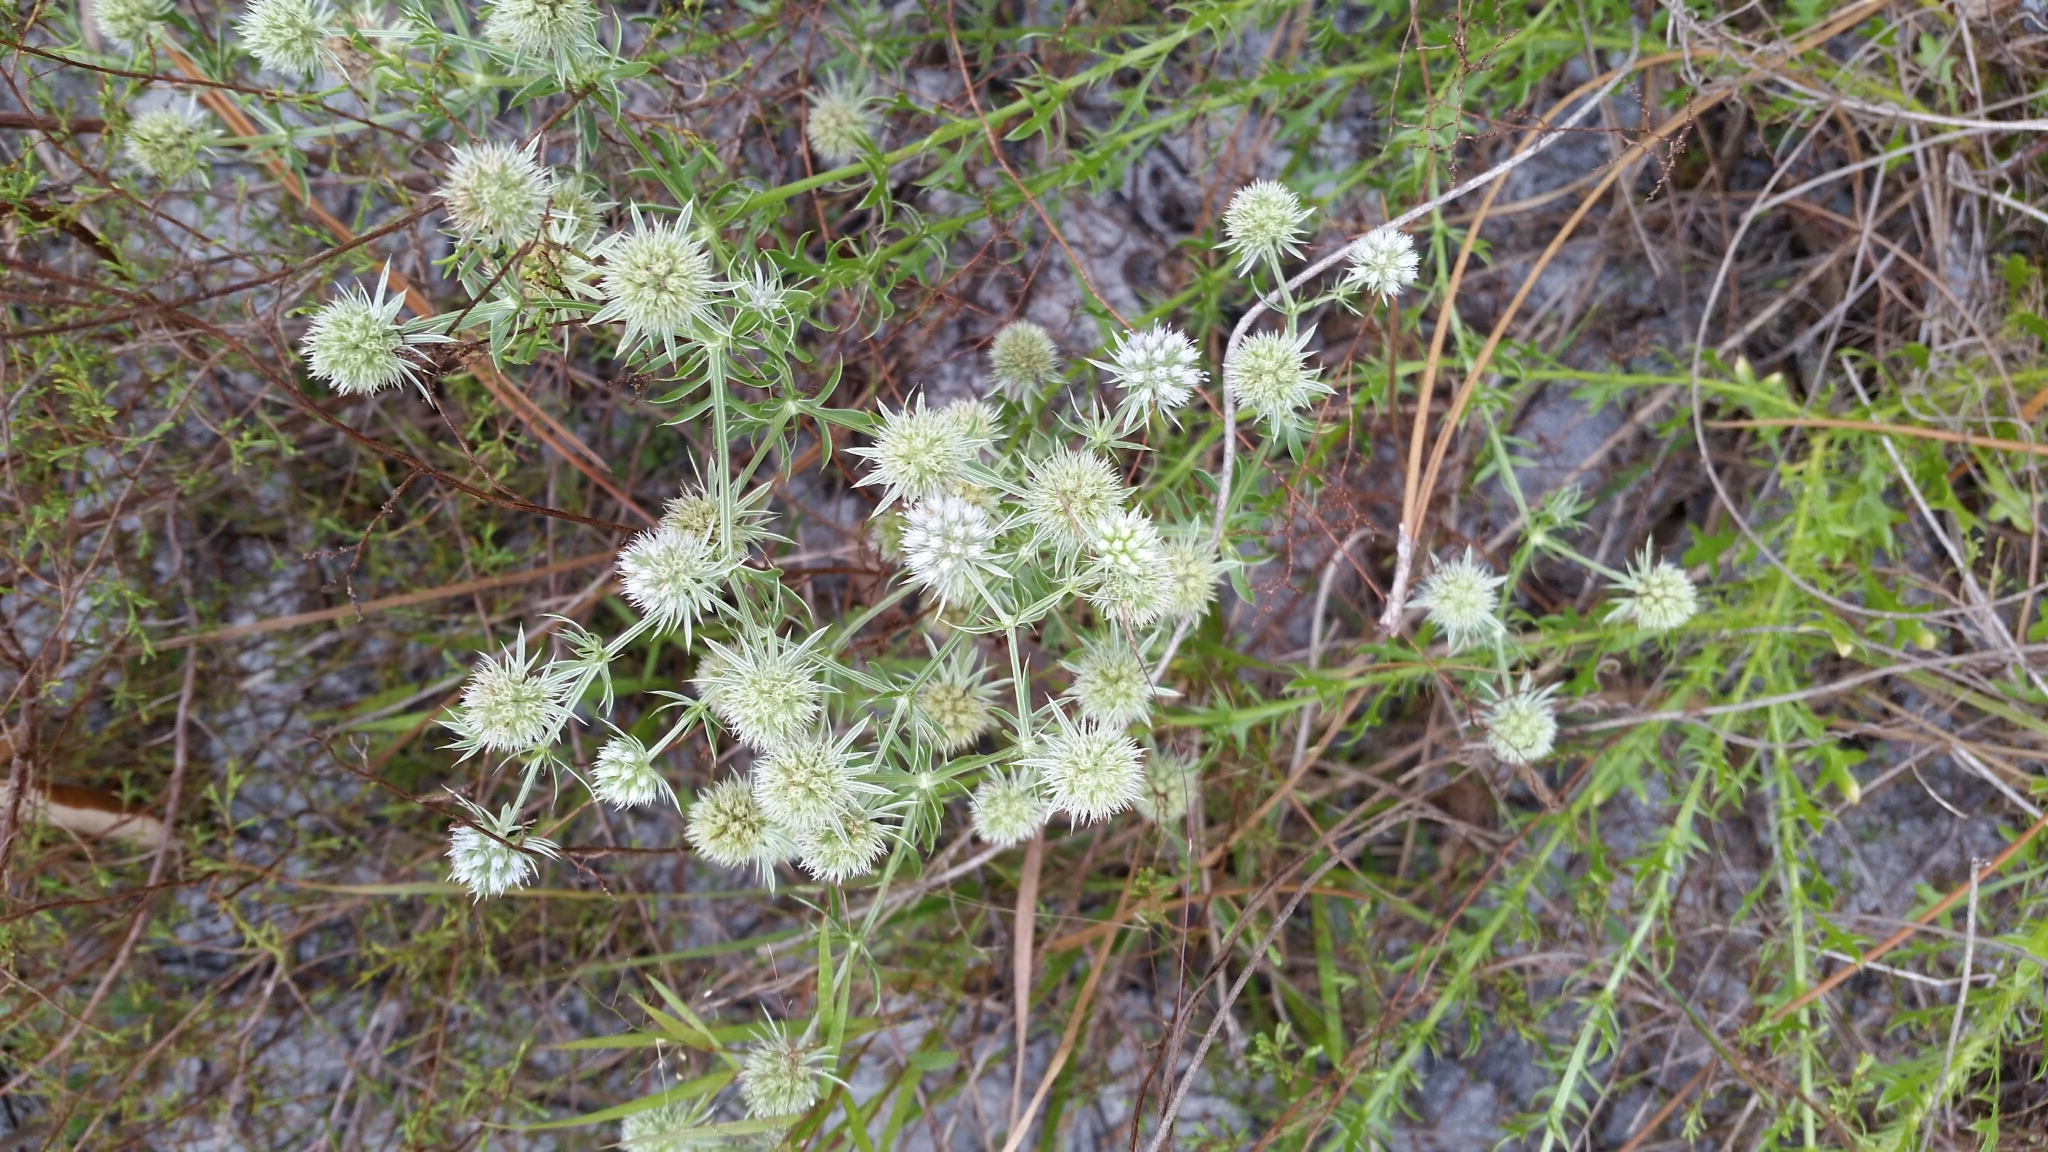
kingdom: Plantae
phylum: Tracheophyta
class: Magnoliopsida
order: Apiales
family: Apiaceae
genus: Eryngium
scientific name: Eryngium aromaticum
